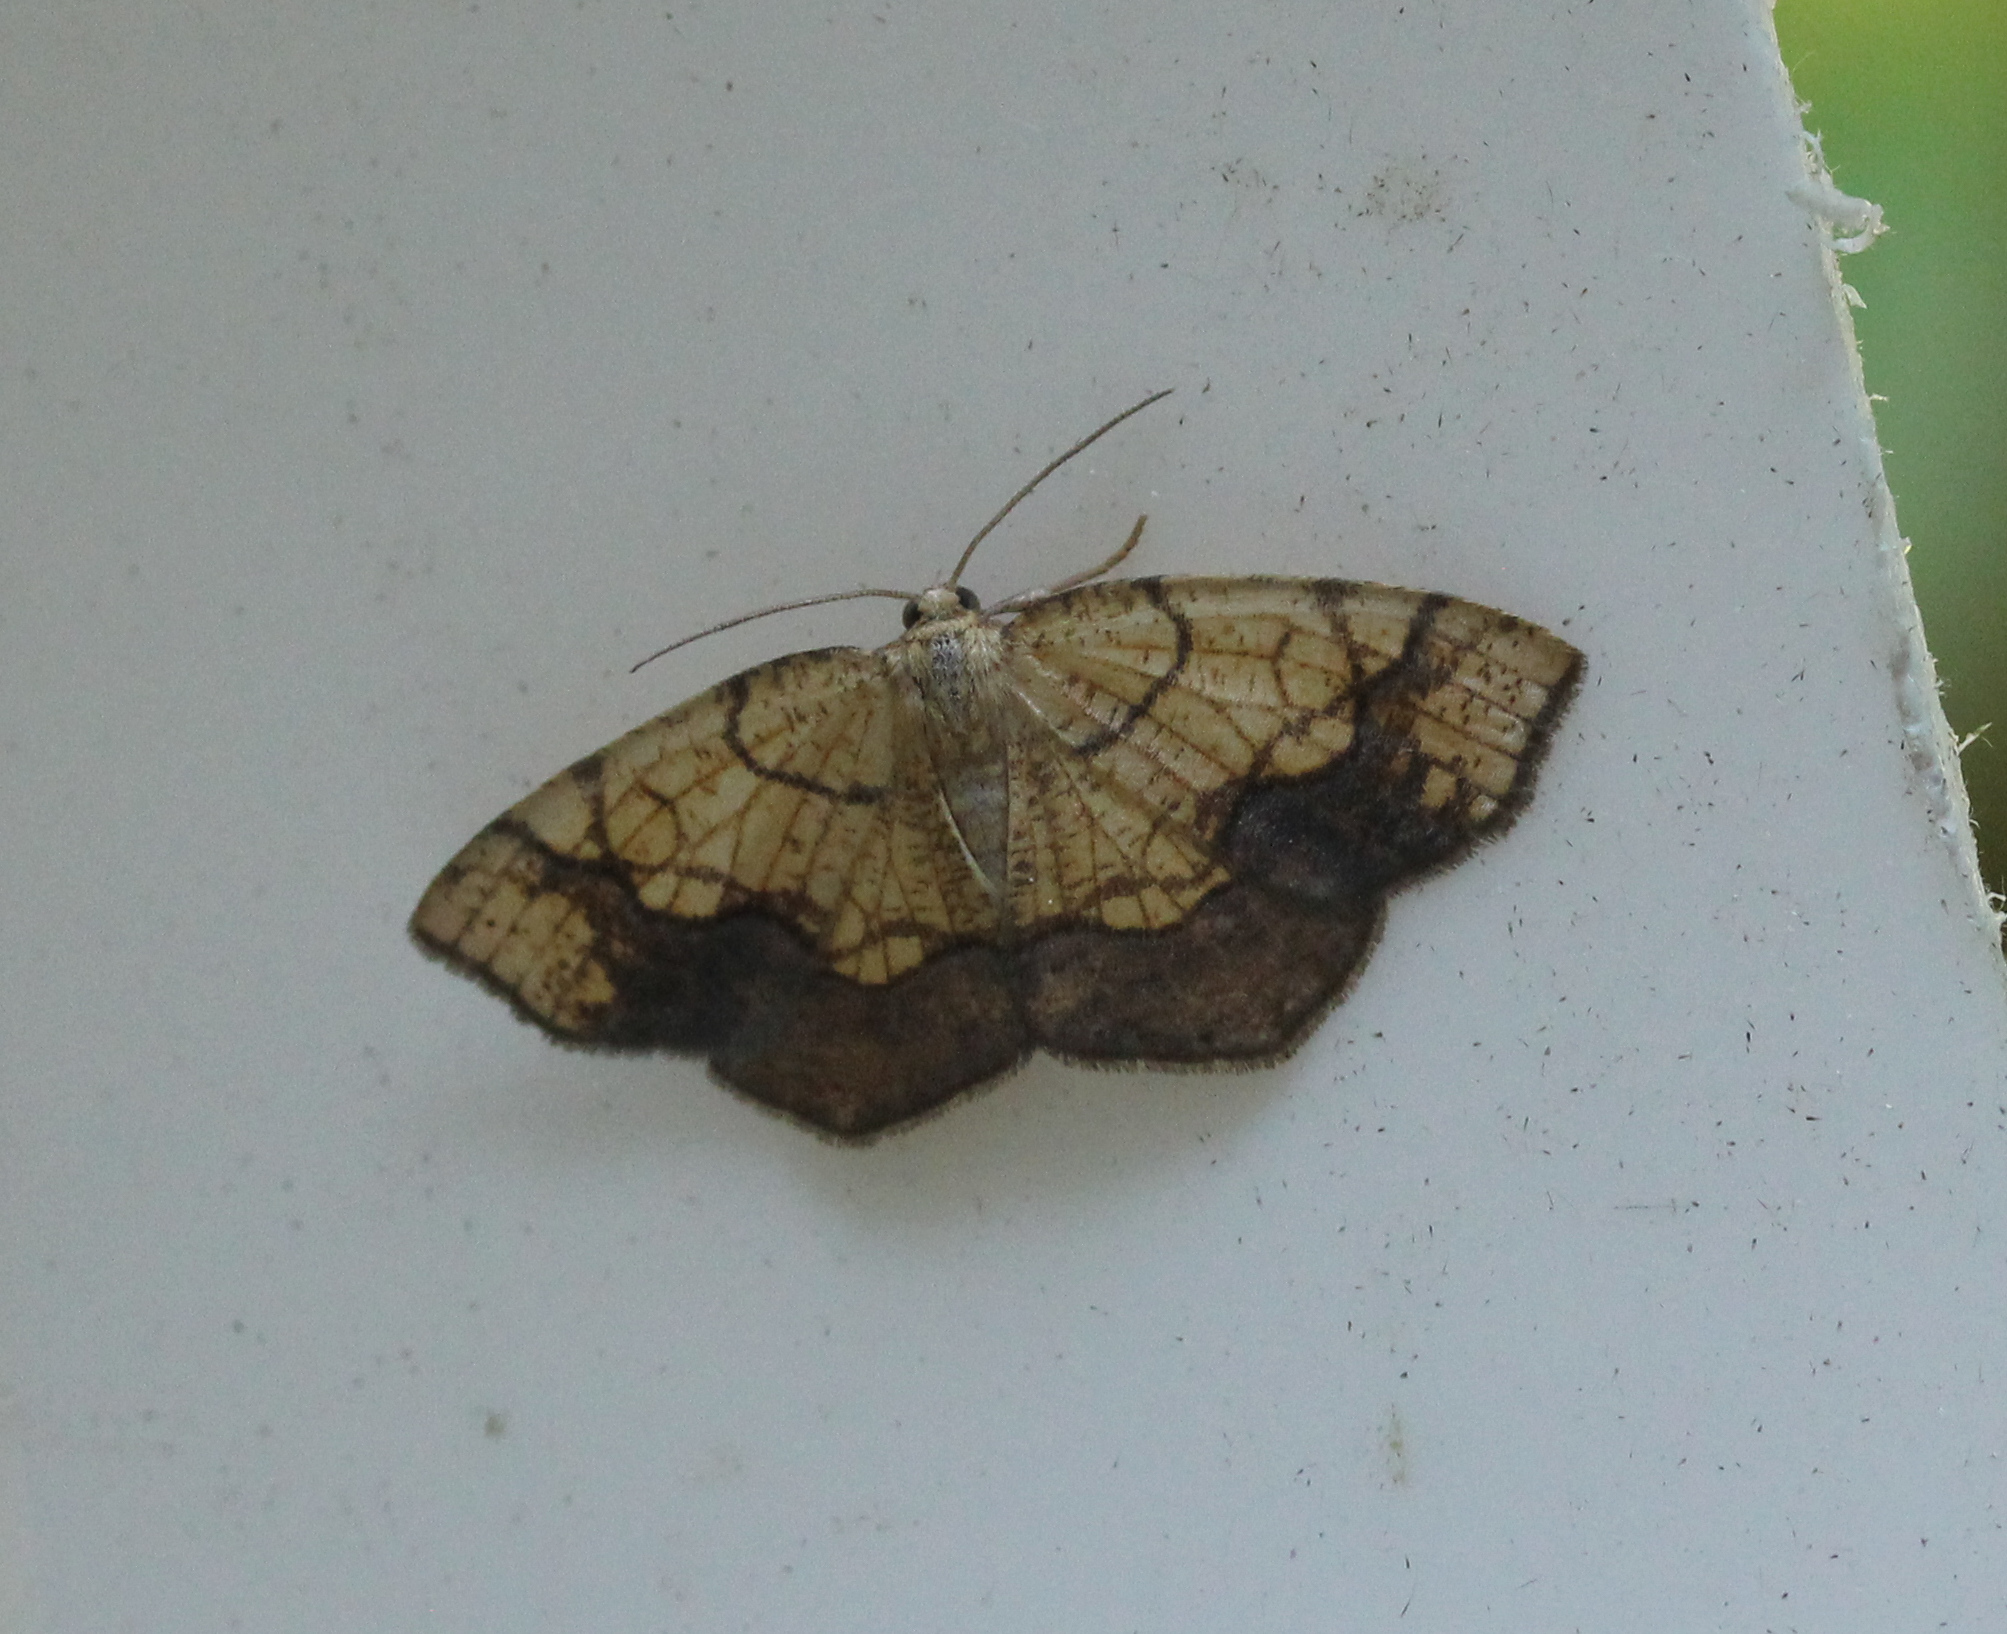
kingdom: Animalia
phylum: Arthropoda
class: Insecta
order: Lepidoptera
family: Geometridae
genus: Nematocampa
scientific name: Nematocampa resistaria
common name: Horned spanworm moth
